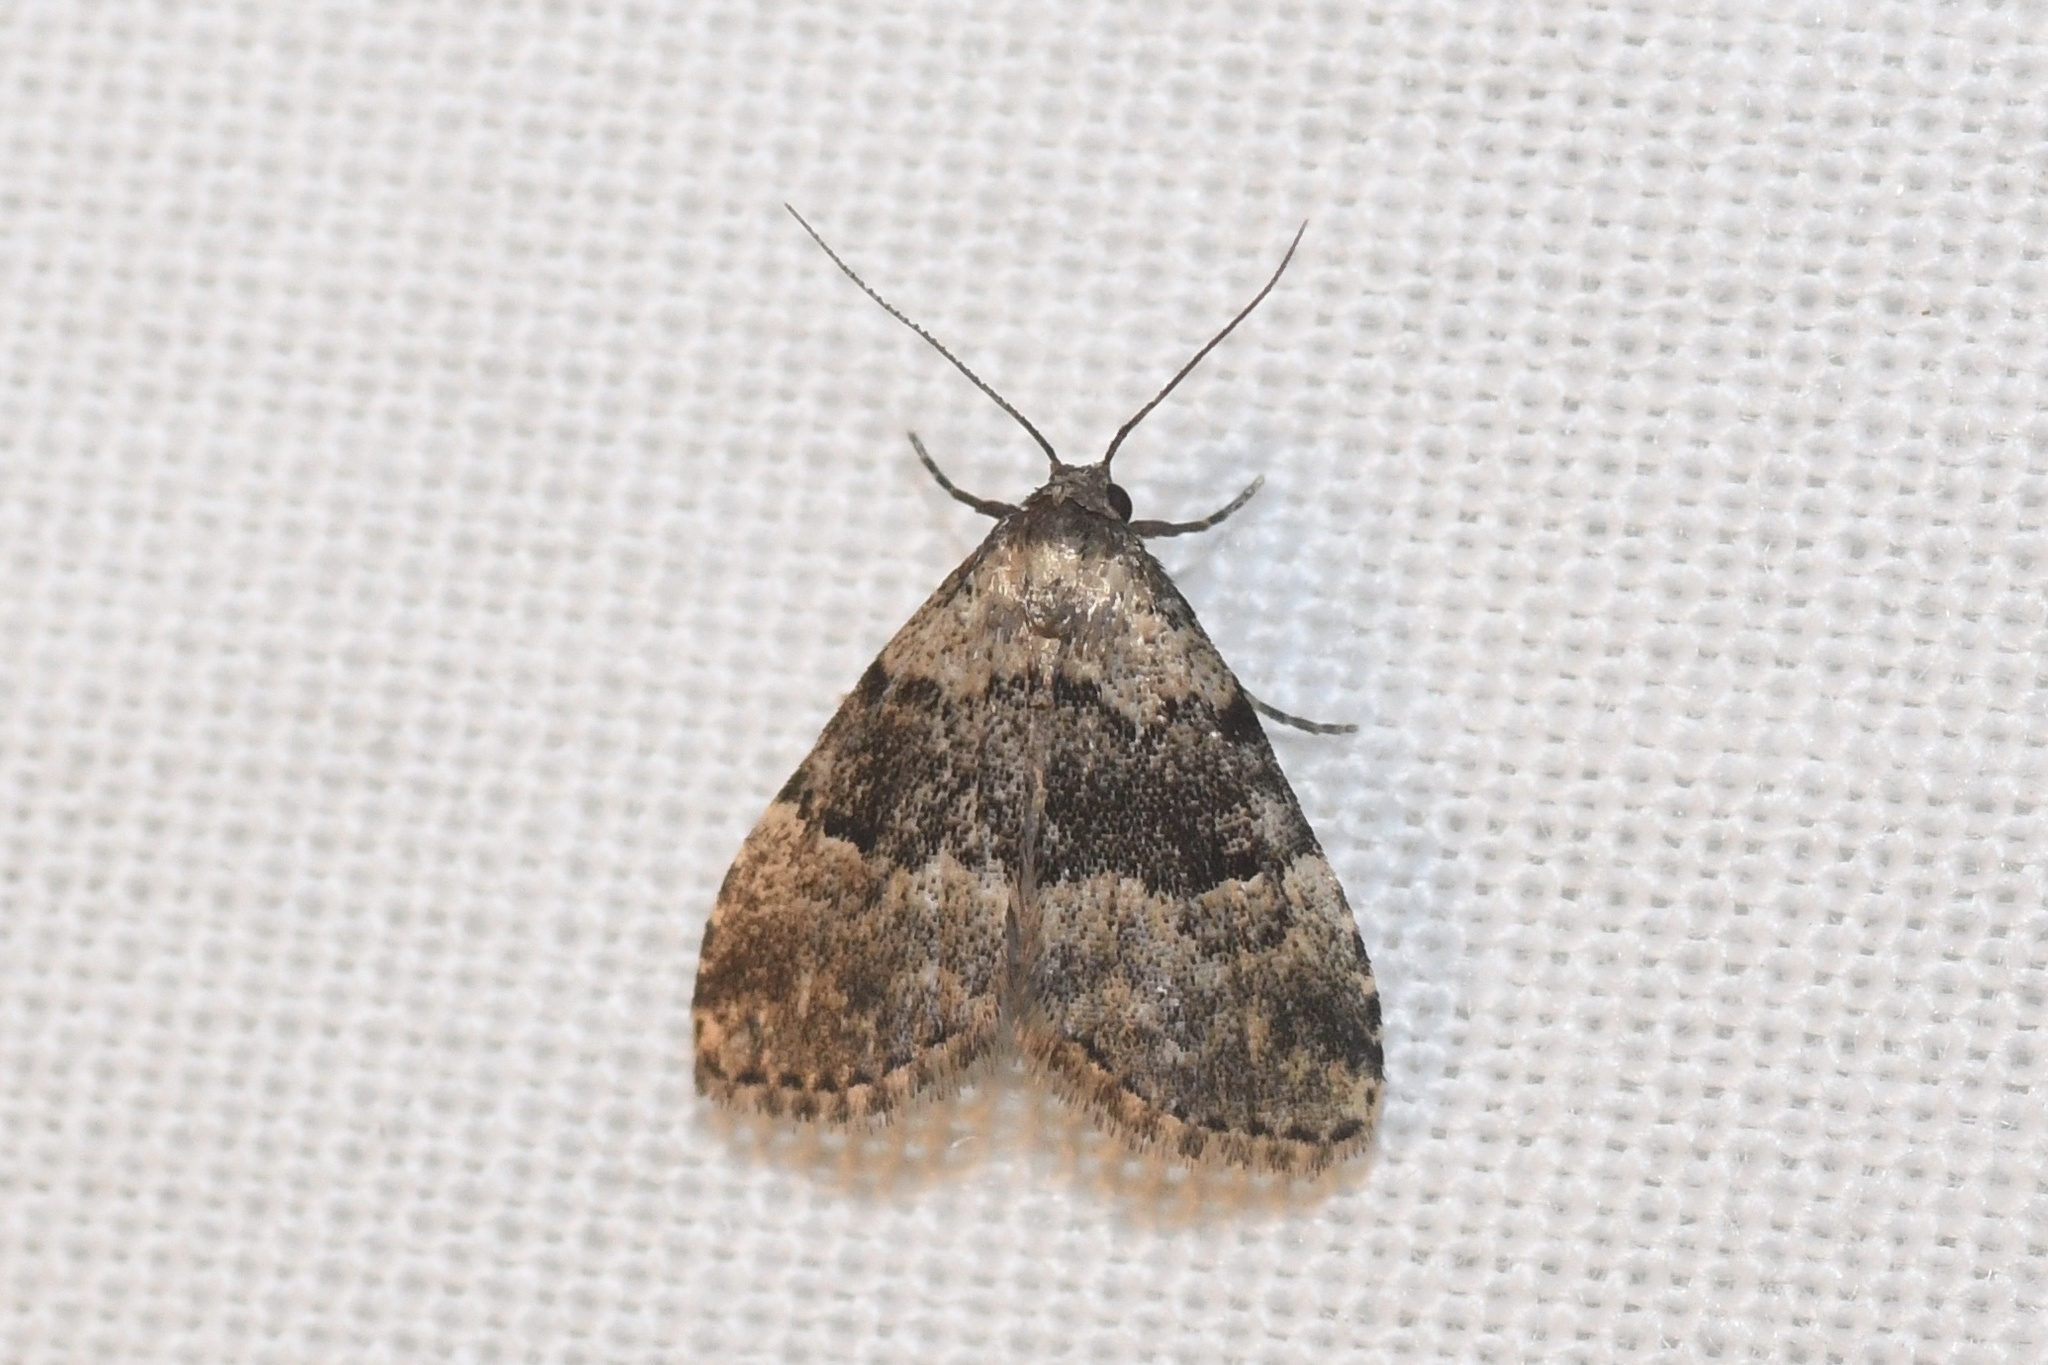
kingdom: Animalia
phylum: Arthropoda
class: Insecta
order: Lepidoptera
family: Erebidae
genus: Dyspyralis
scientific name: Dyspyralis illocata
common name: Visitation moth
